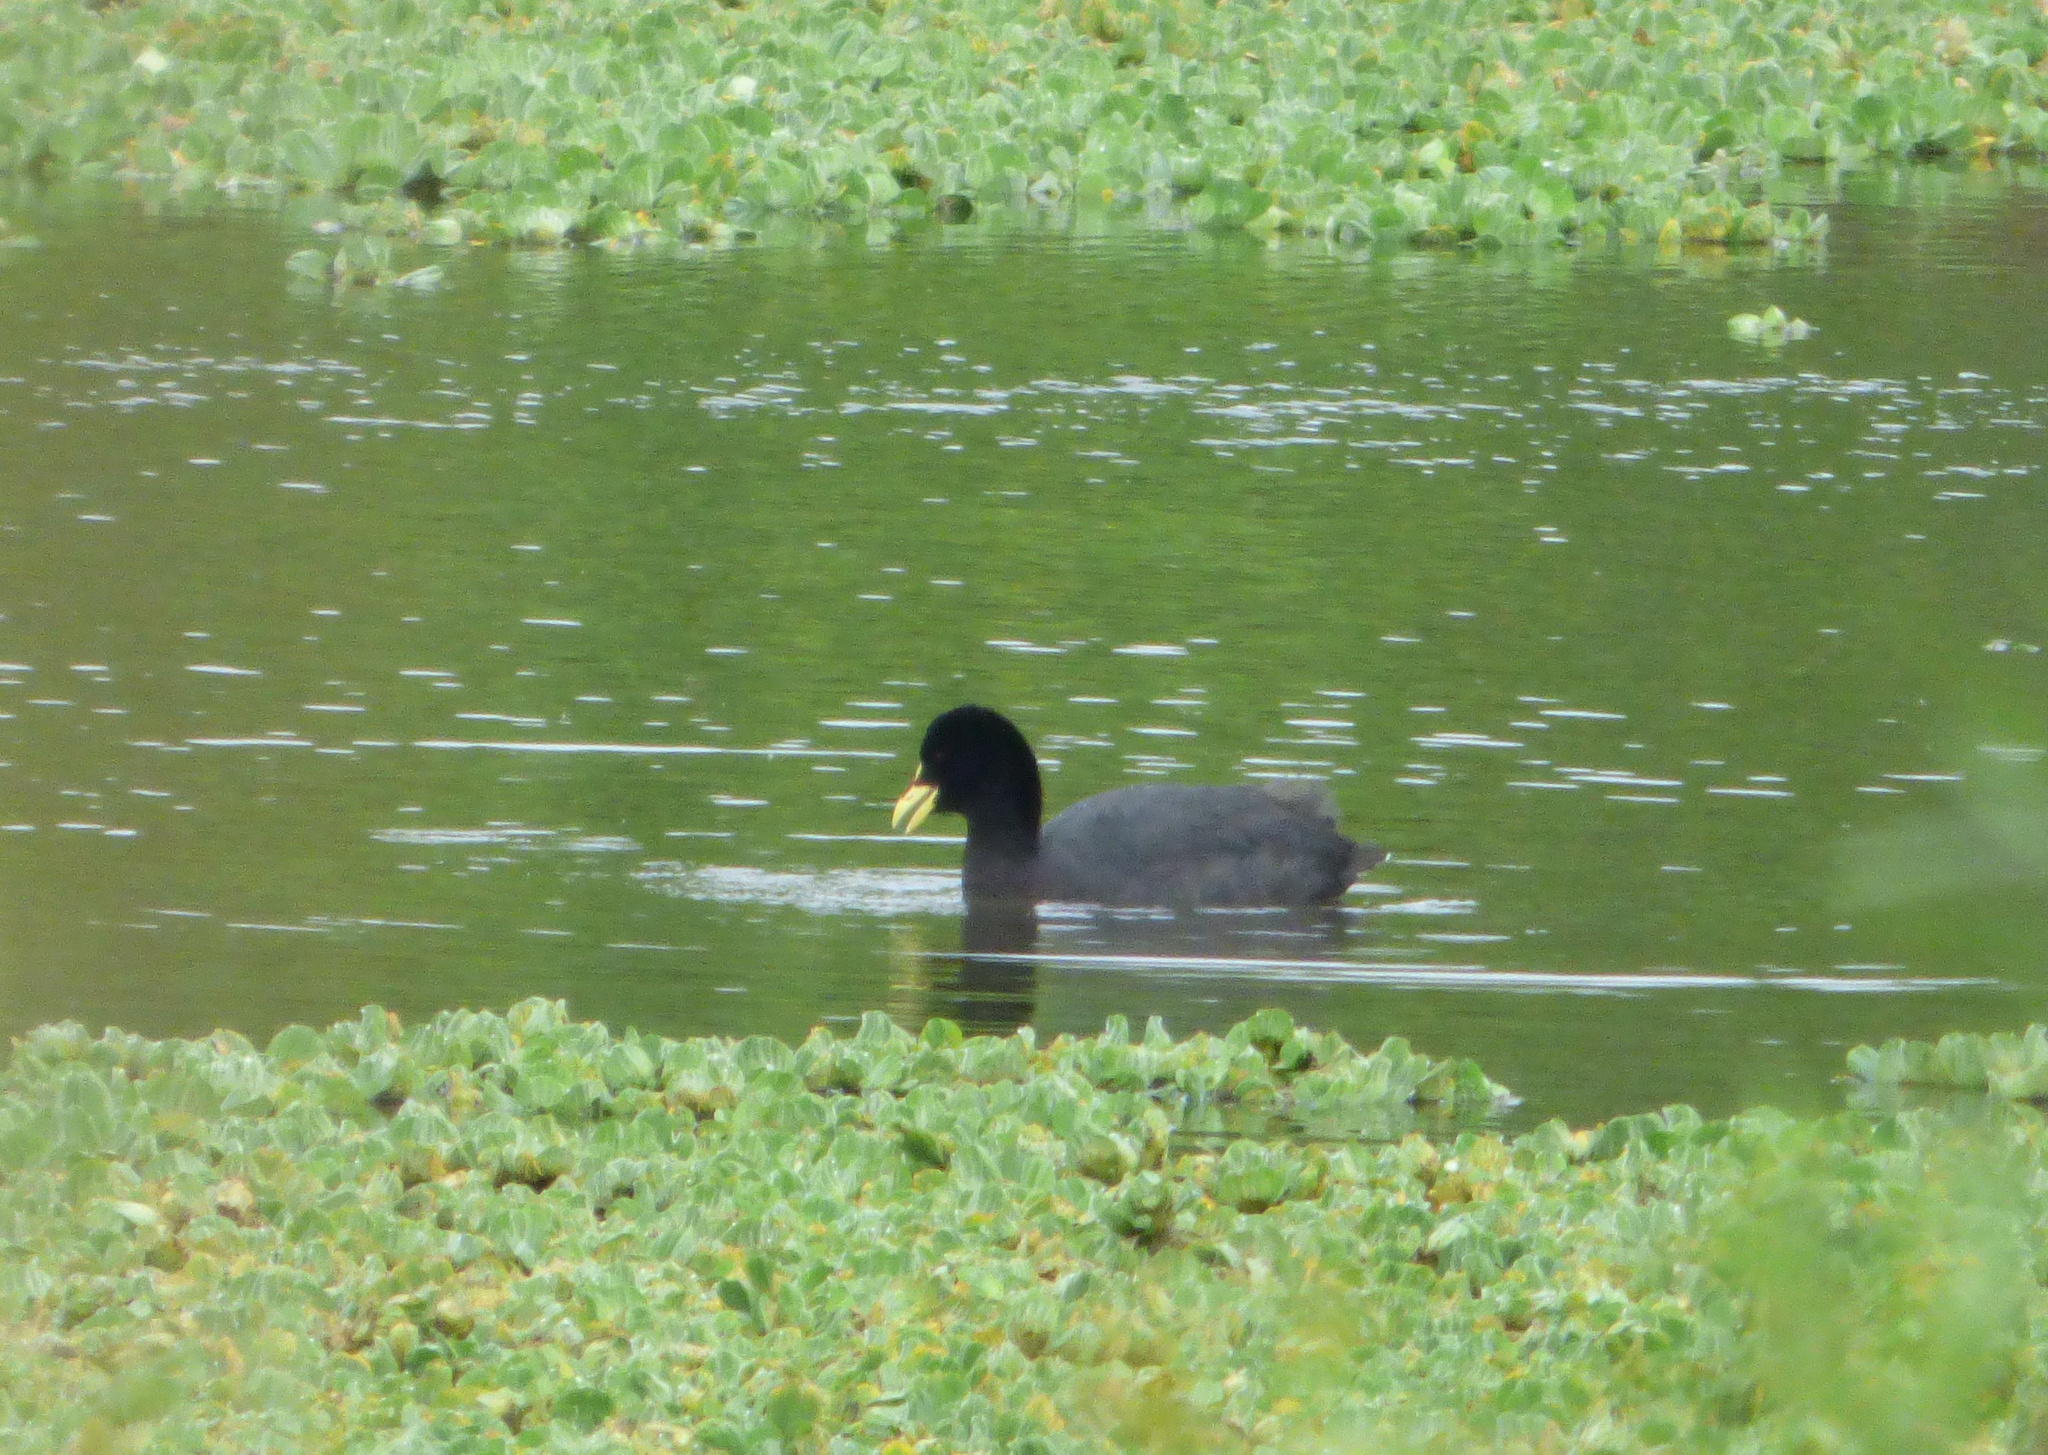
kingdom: Animalia
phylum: Chordata
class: Aves
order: Gruiformes
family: Rallidae
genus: Fulica
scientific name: Fulica armillata
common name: Red-gartered coot
